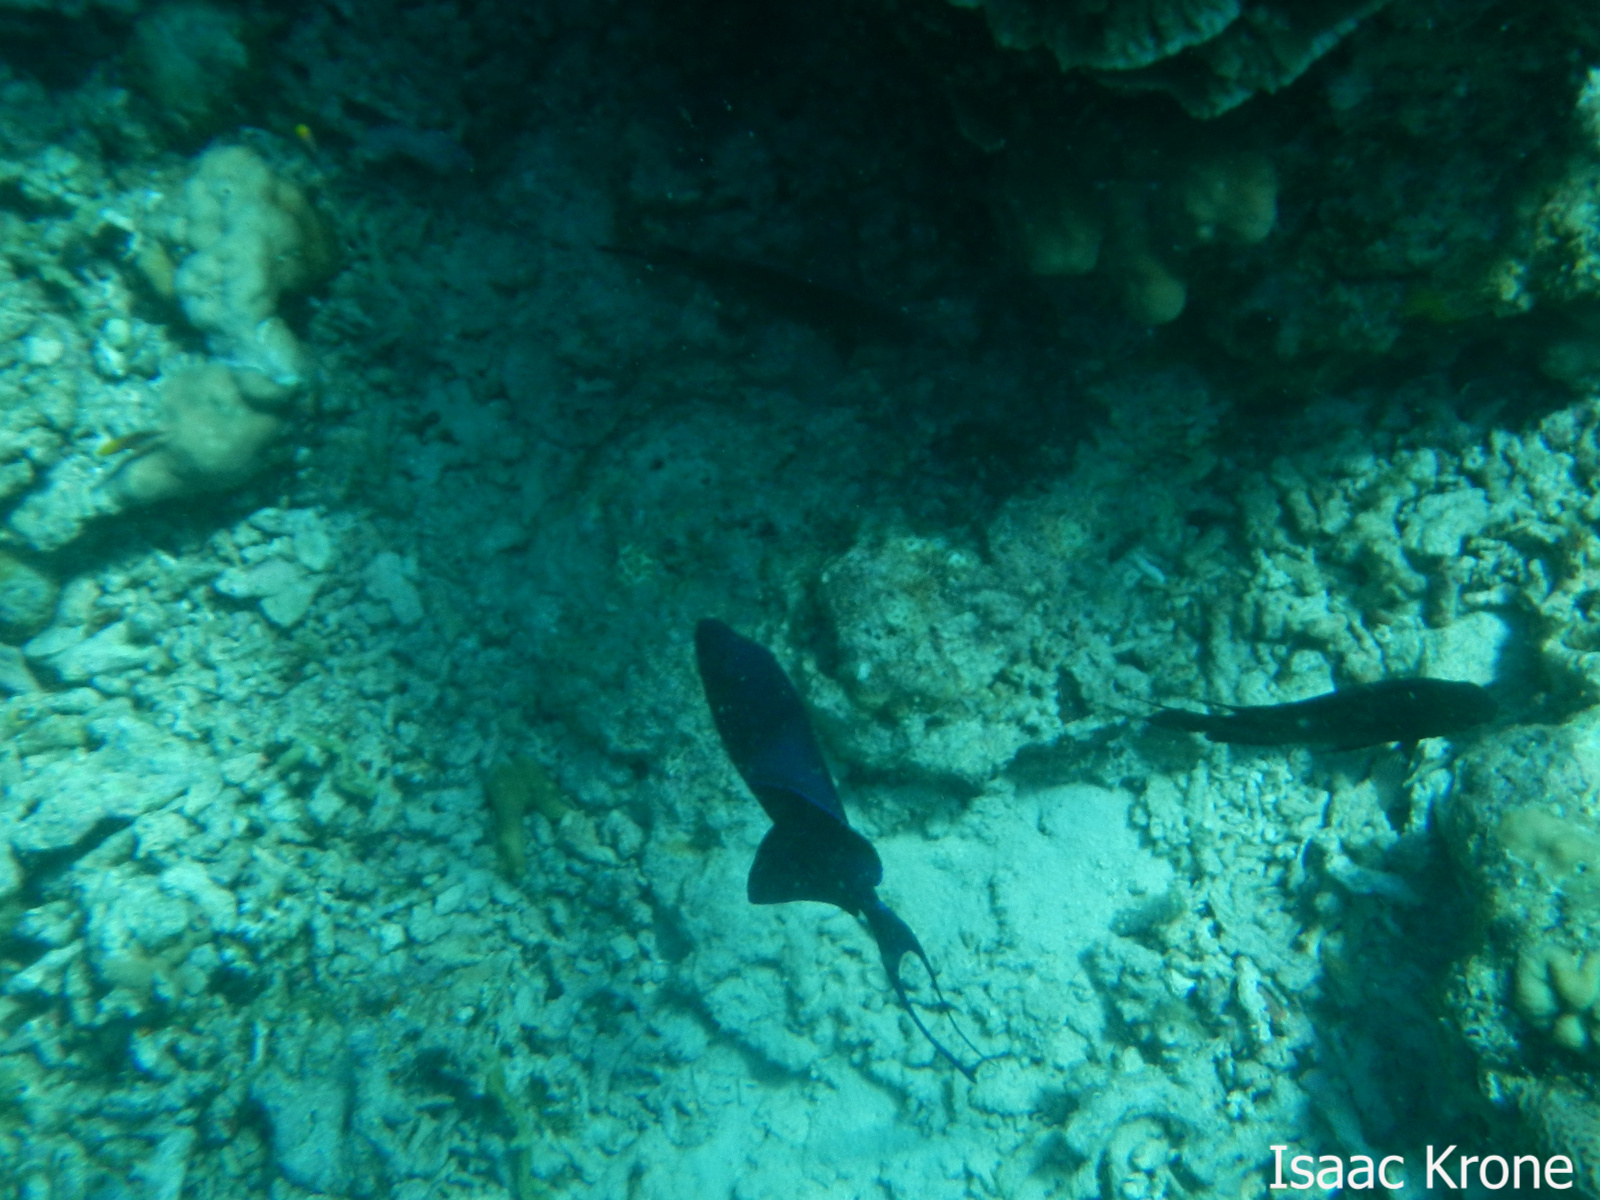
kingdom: Animalia
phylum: Chordata
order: Tetraodontiformes
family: Balistidae
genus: Odonus
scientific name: Odonus niger
